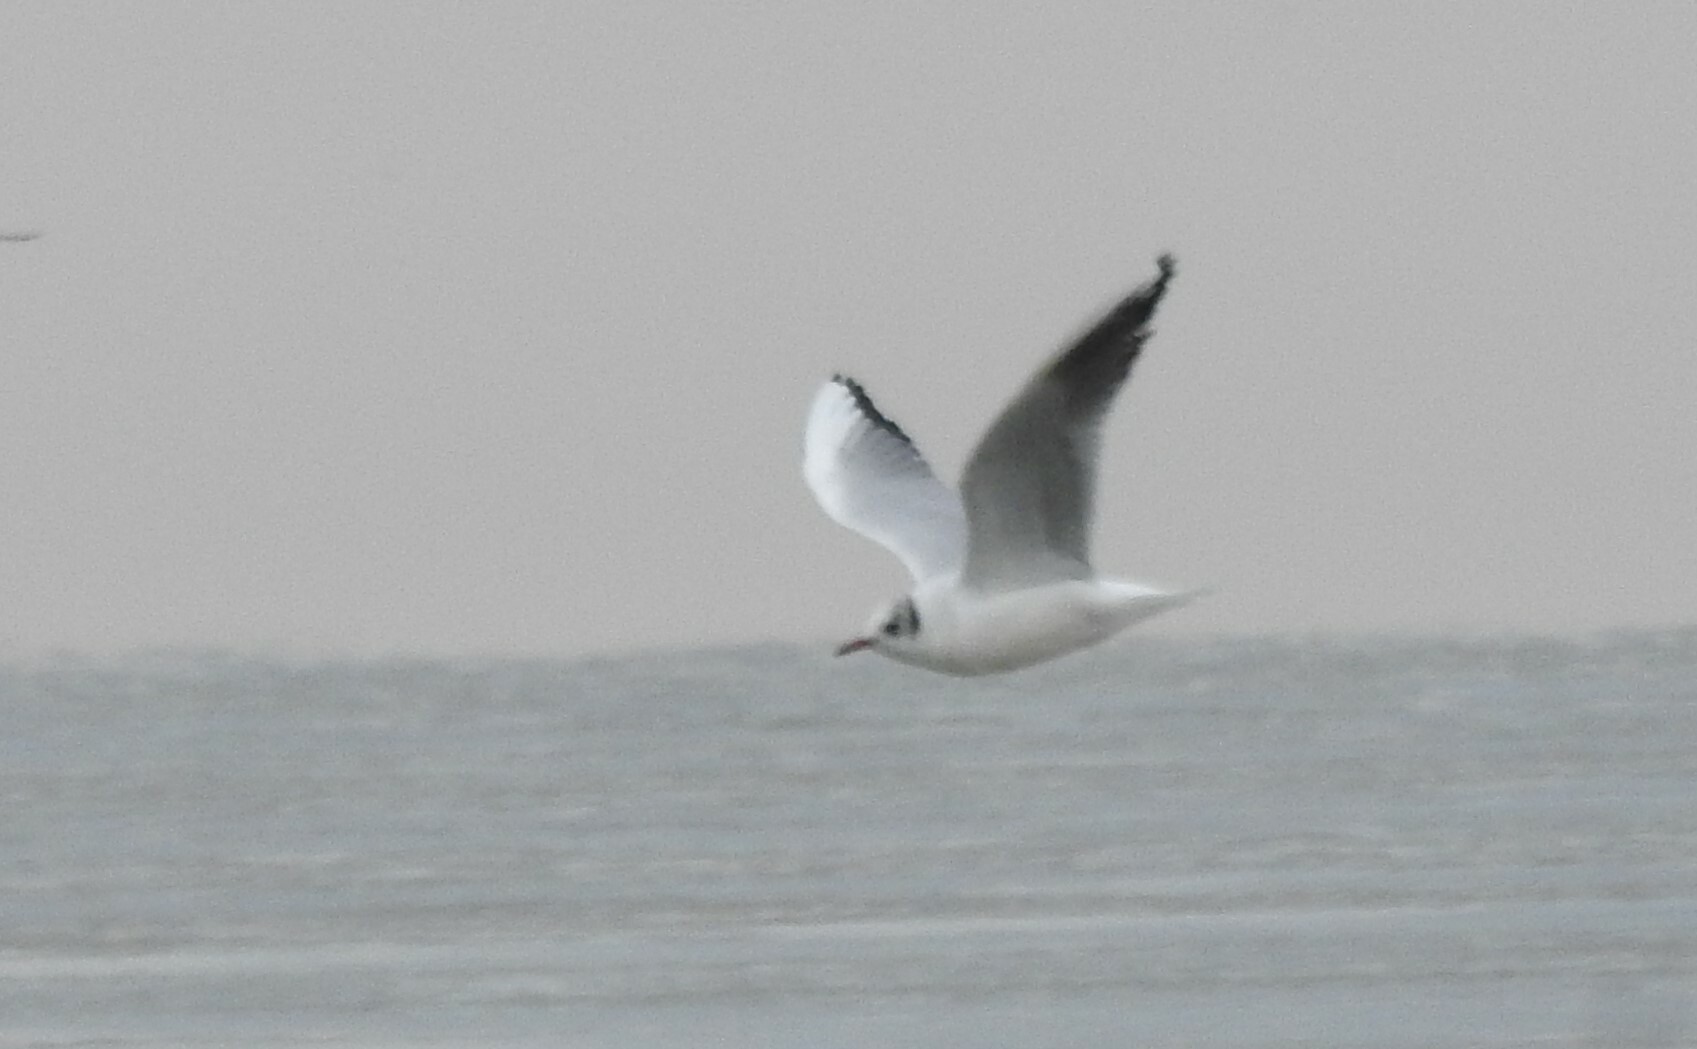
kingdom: Animalia
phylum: Chordata
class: Aves
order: Charadriiformes
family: Laridae
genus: Chroicocephalus
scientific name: Chroicocephalus ridibundus
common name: Black-headed gull
